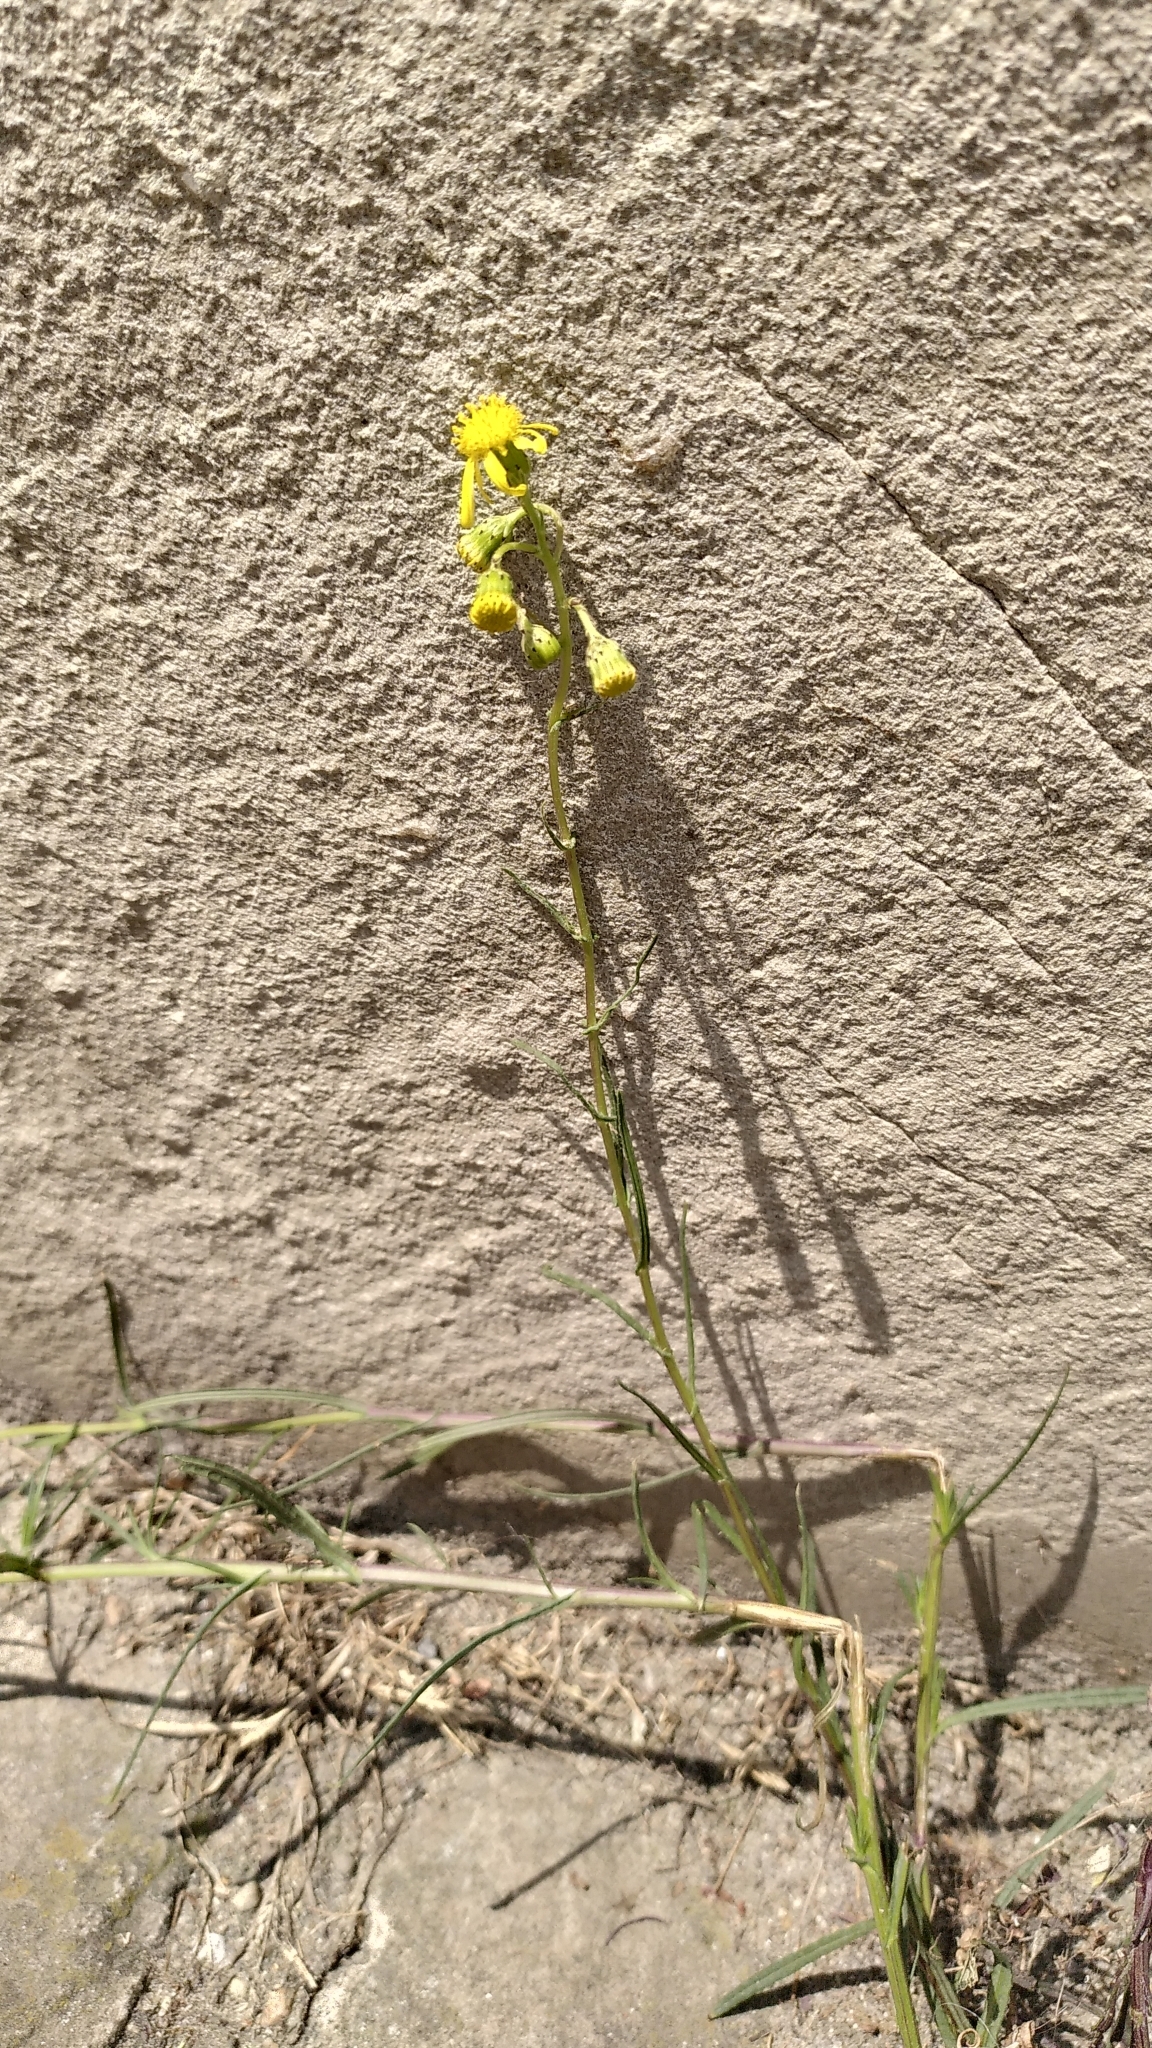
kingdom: Plantae
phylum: Tracheophyta
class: Magnoliopsida
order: Asterales
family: Asteraceae
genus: Senecio
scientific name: Senecio inaequidens
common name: Narrow-leaved ragwort
